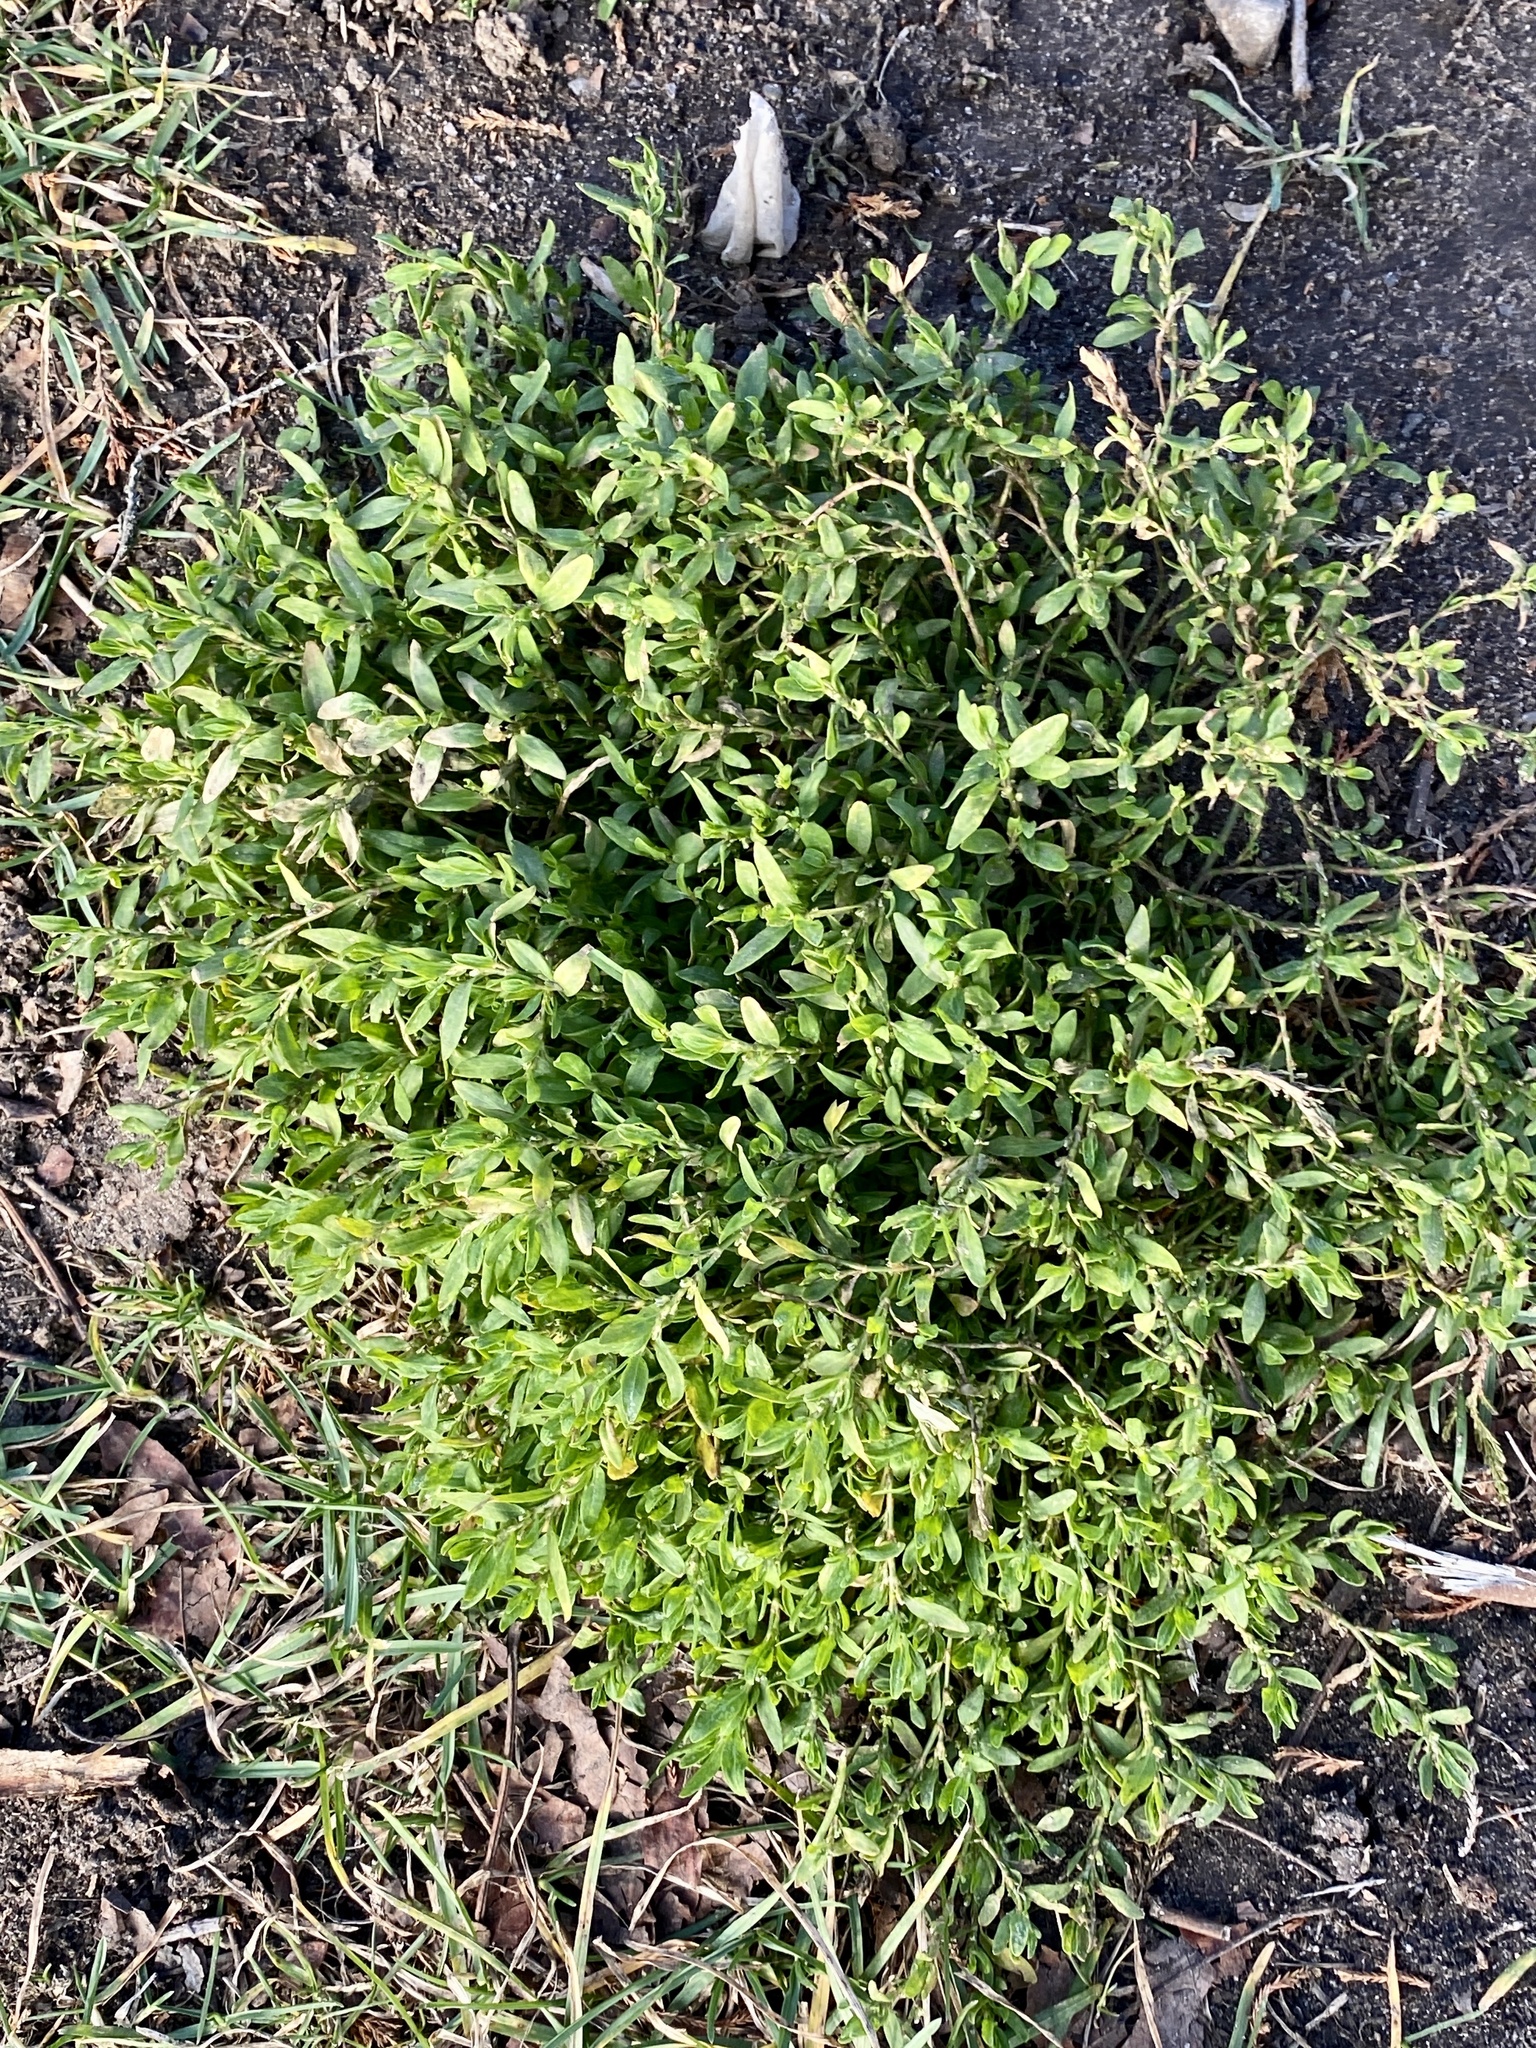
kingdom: Plantae
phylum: Tracheophyta
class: Magnoliopsida
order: Caryophyllales
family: Polygonaceae
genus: Polygonum
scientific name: Polygonum aviculare
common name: Prostrate knotweed
